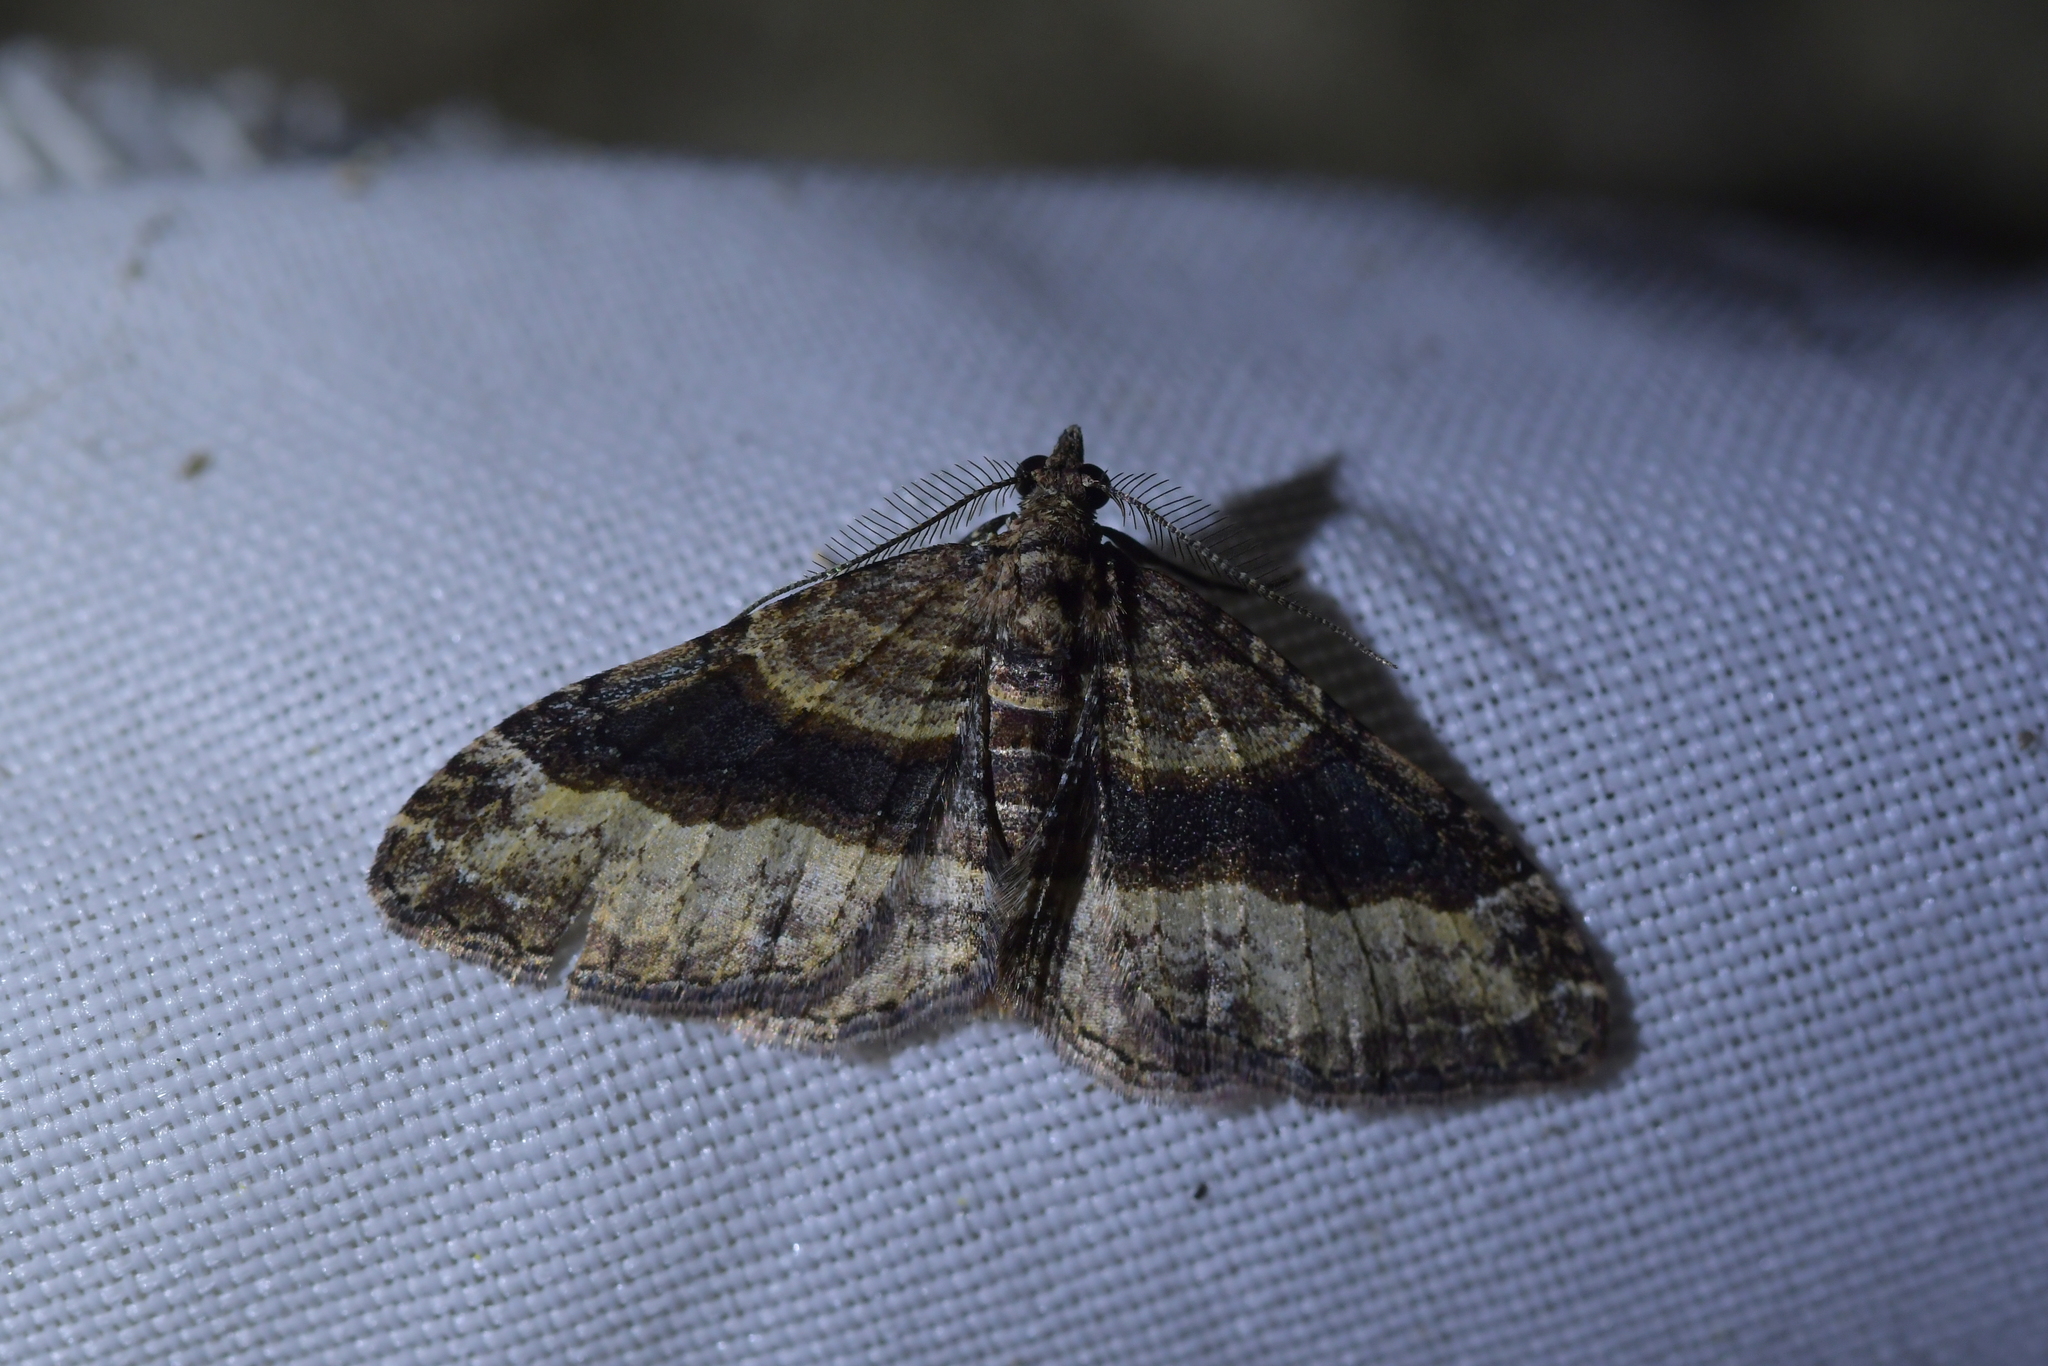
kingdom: Animalia
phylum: Arthropoda
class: Insecta
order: Lepidoptera
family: Geometridae
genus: Epyaxa
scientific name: Epyaxa lucidata
